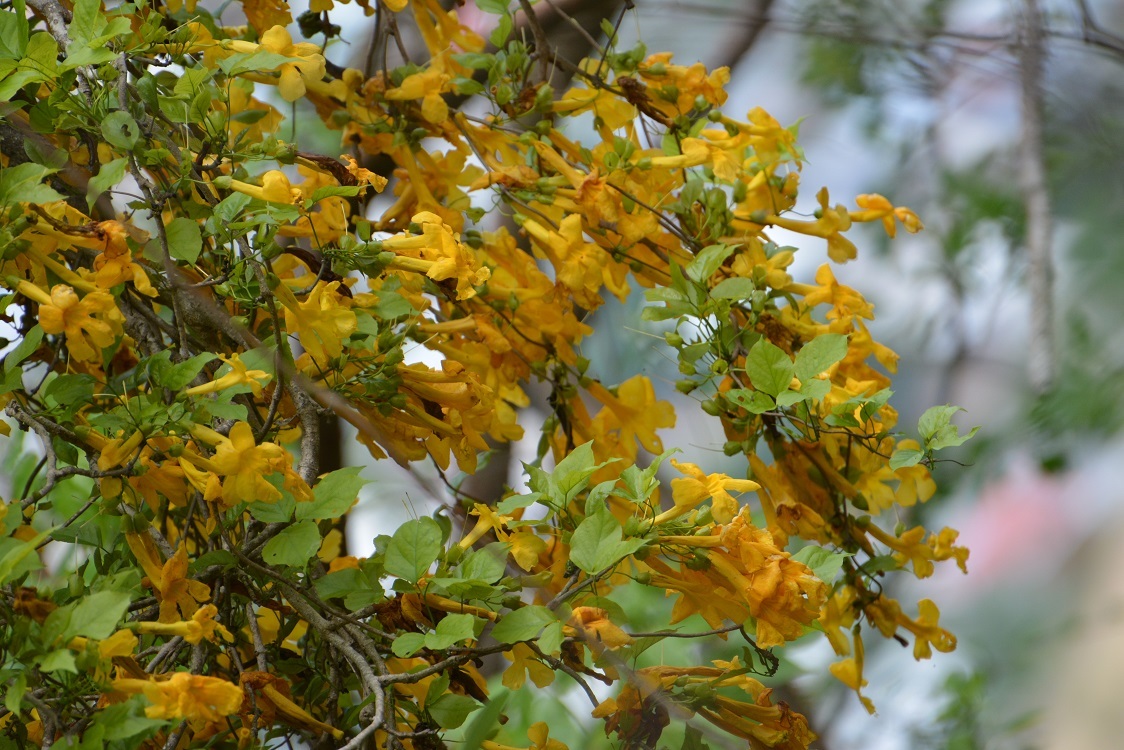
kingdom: Plantae
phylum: Tracheophyta
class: Magnoliopsida
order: Lamiales
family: Bignoniaceae
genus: Dolichandra
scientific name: Dolichandra quadrivalvis
